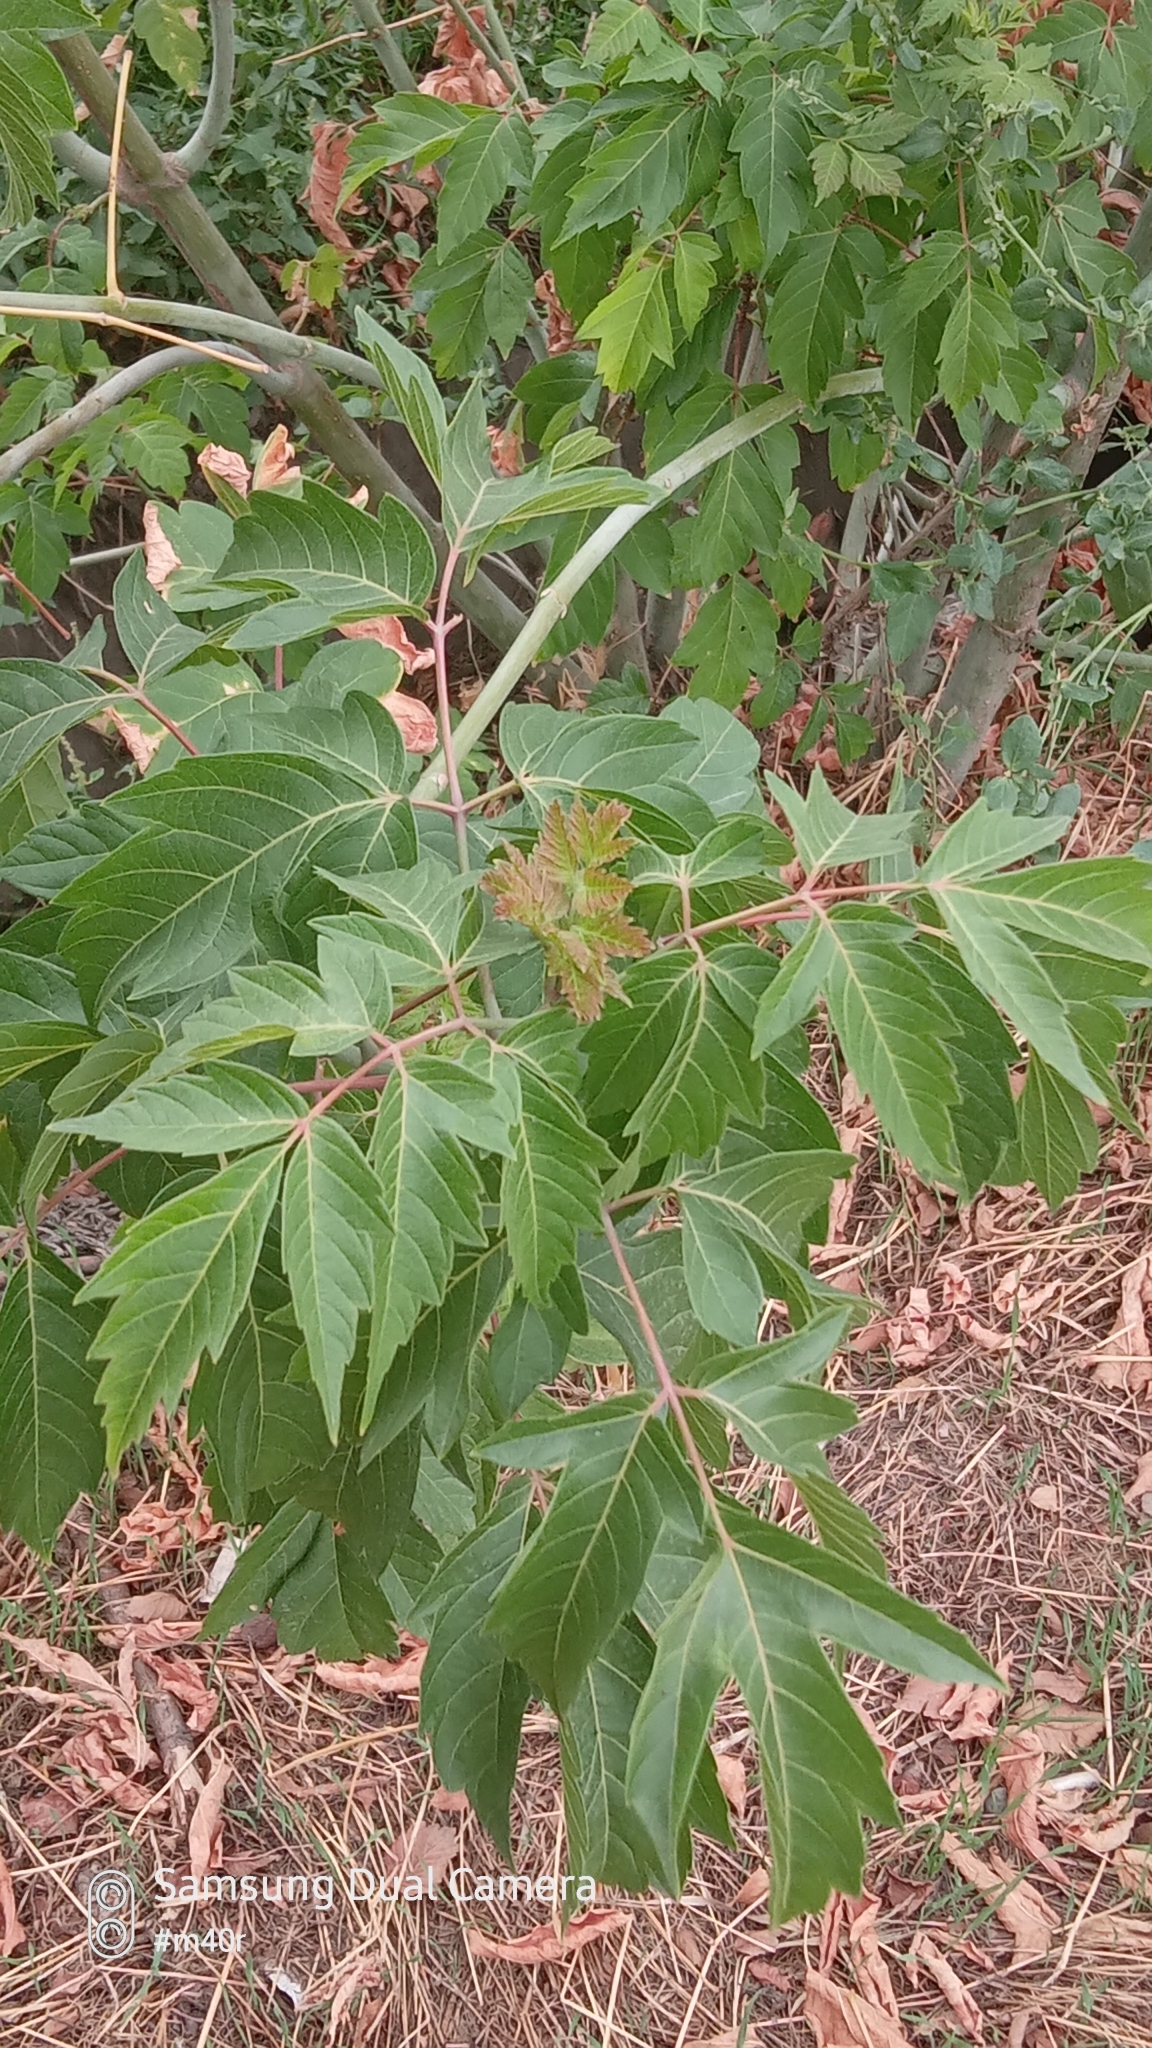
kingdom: Plantae
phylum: Tracheophyta
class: Magnoliopsida
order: Sapindales
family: Sapindaceae
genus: Acer
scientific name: Acer negundo
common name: Ashleaf maple
